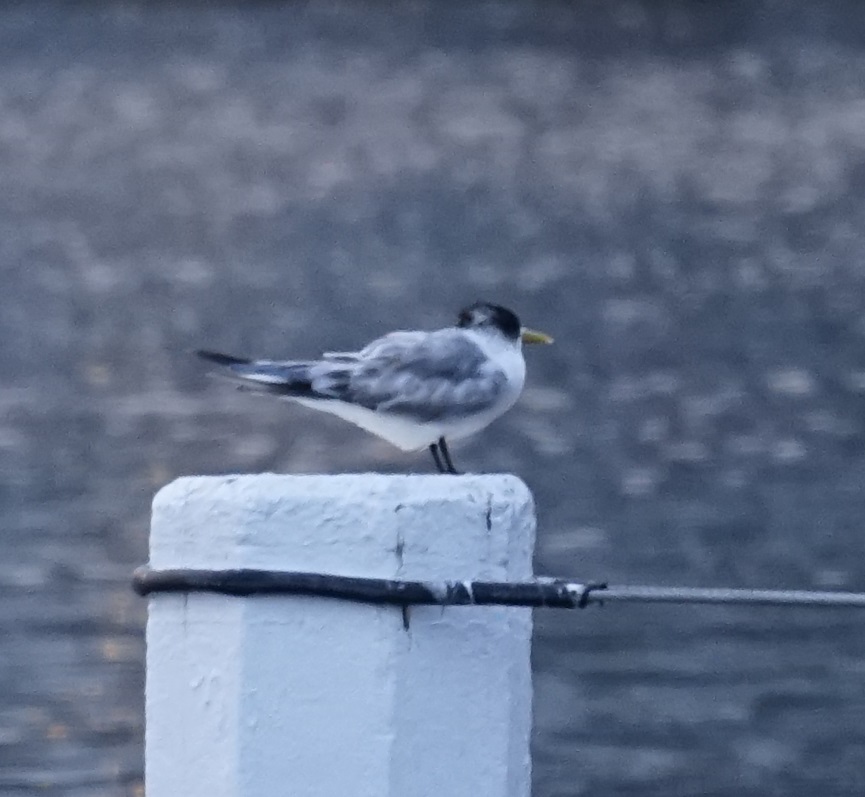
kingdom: Animalia
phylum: Chordata
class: Aves
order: Charadriiformes
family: Laridae
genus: Thalasseus
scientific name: Thalasseus bergii
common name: Greater crested tern
